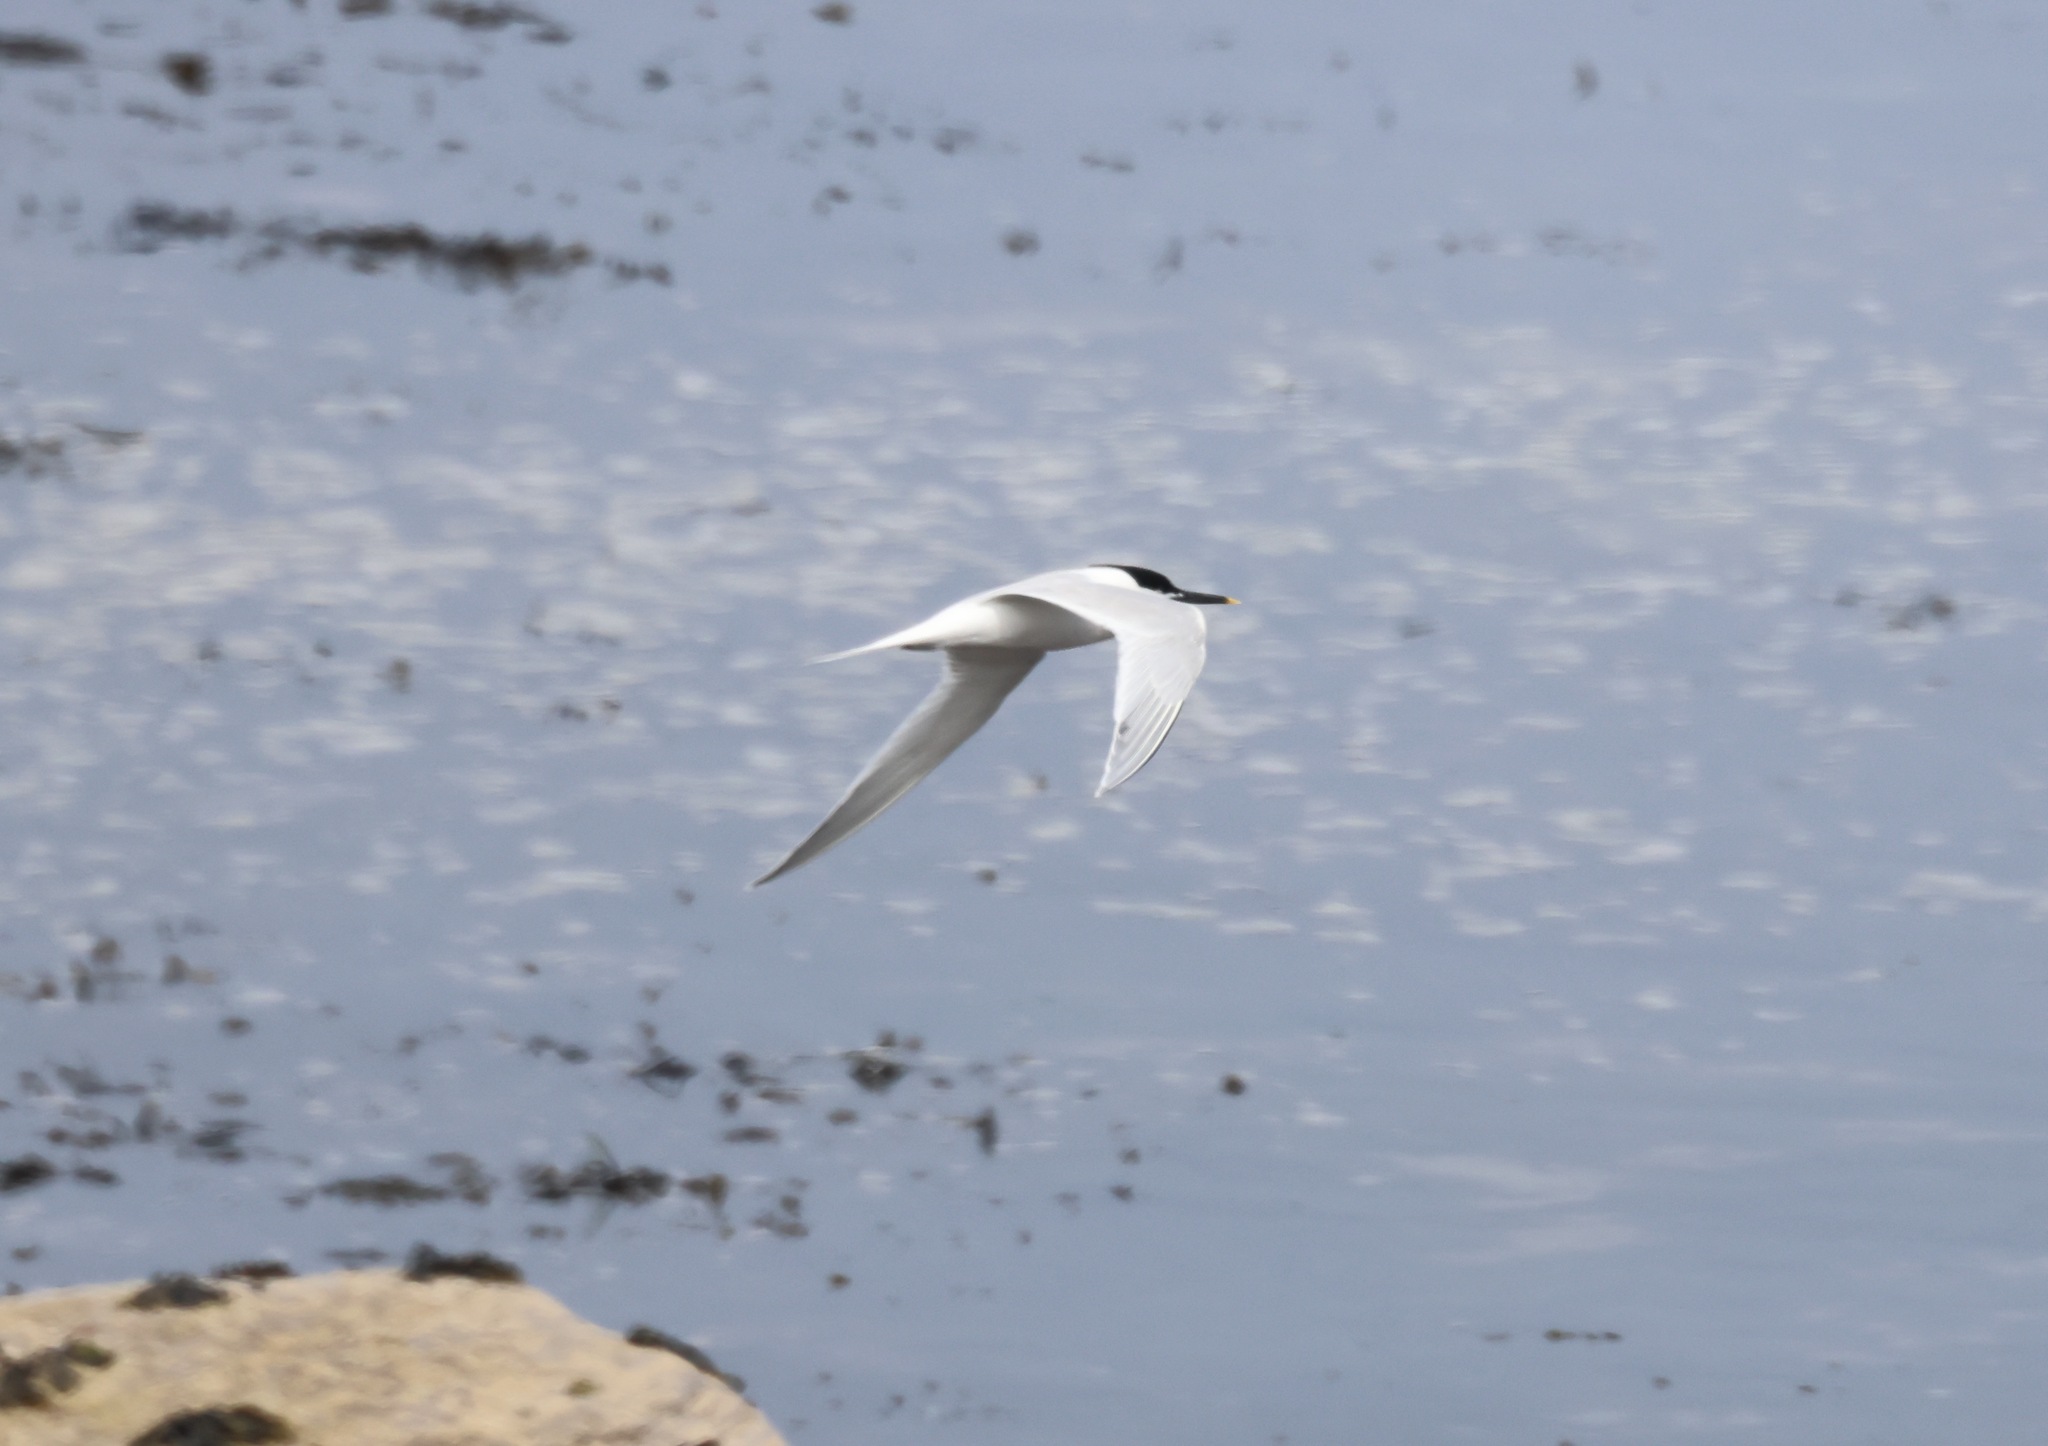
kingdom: Animalia
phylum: Chordata
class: Aves
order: Charadriiformes
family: Laridae
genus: Thalasseus
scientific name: Thalasseus sandvicensis
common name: Sandwich tern
